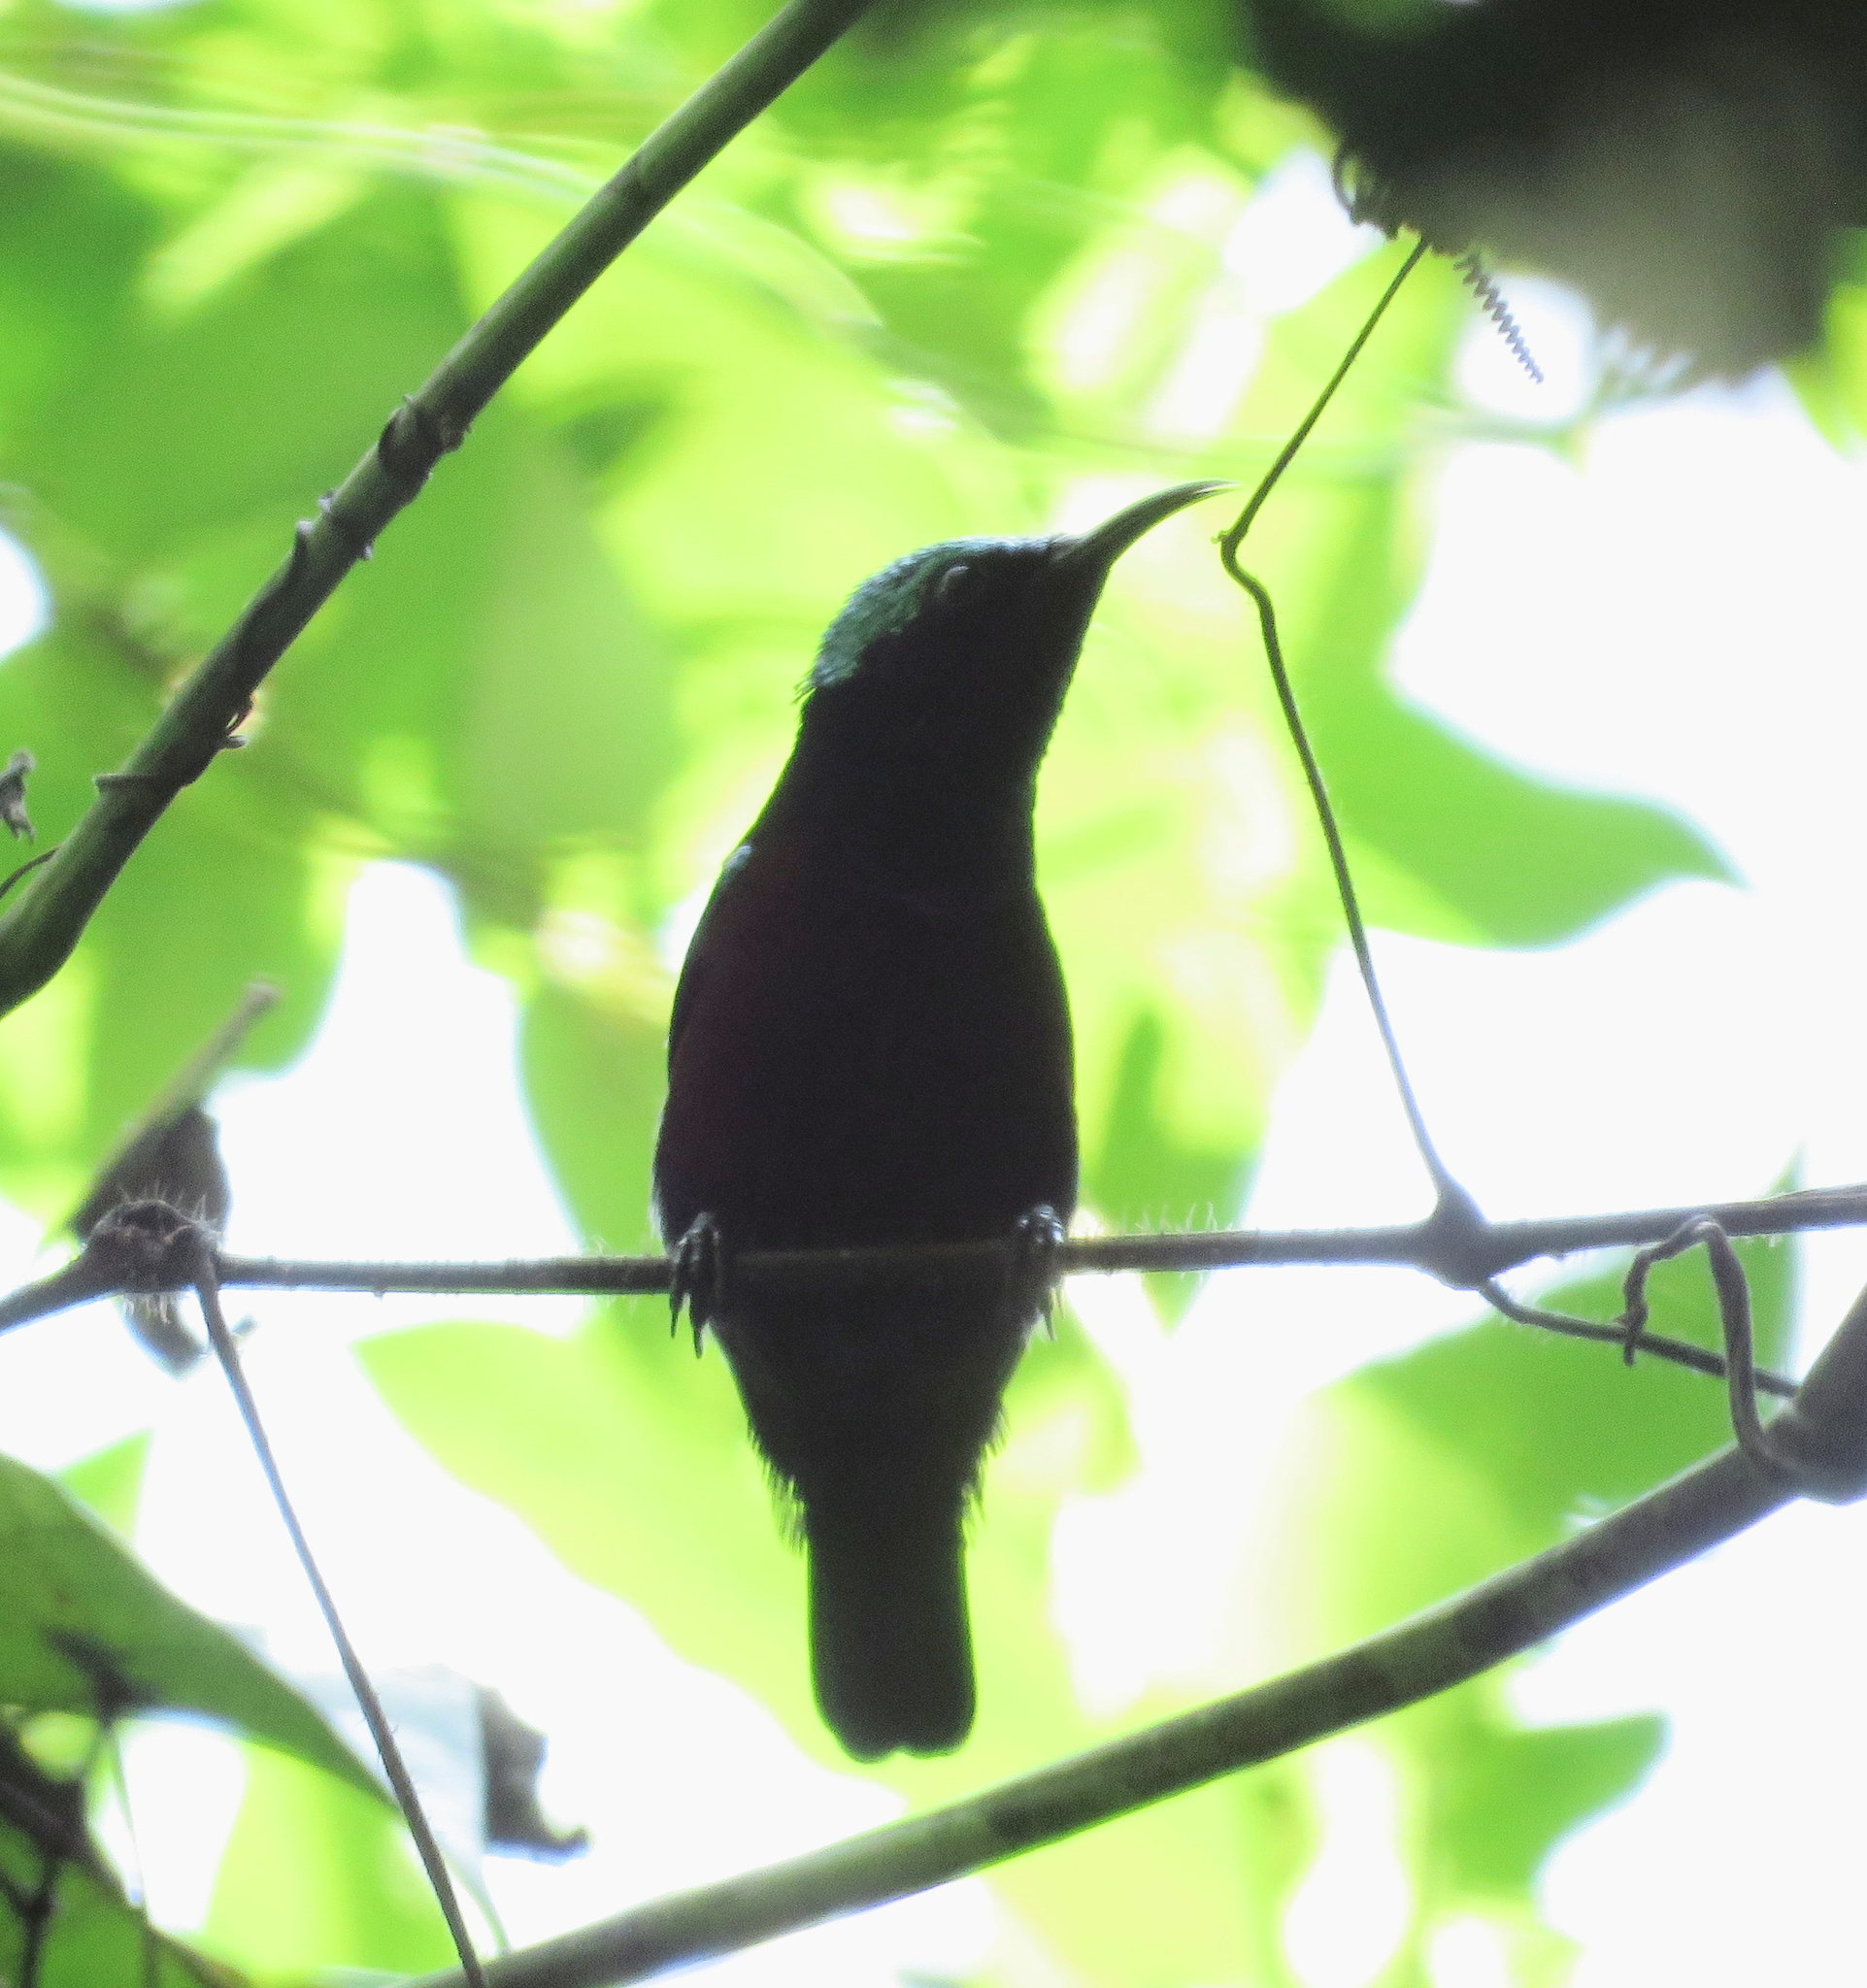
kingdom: Animalia
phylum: Chordata
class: Aves
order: Passeriformes
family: Nectariniidae
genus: Leptocoma
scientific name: Leptocoma brasiliana
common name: Van hasselt's sunbird
